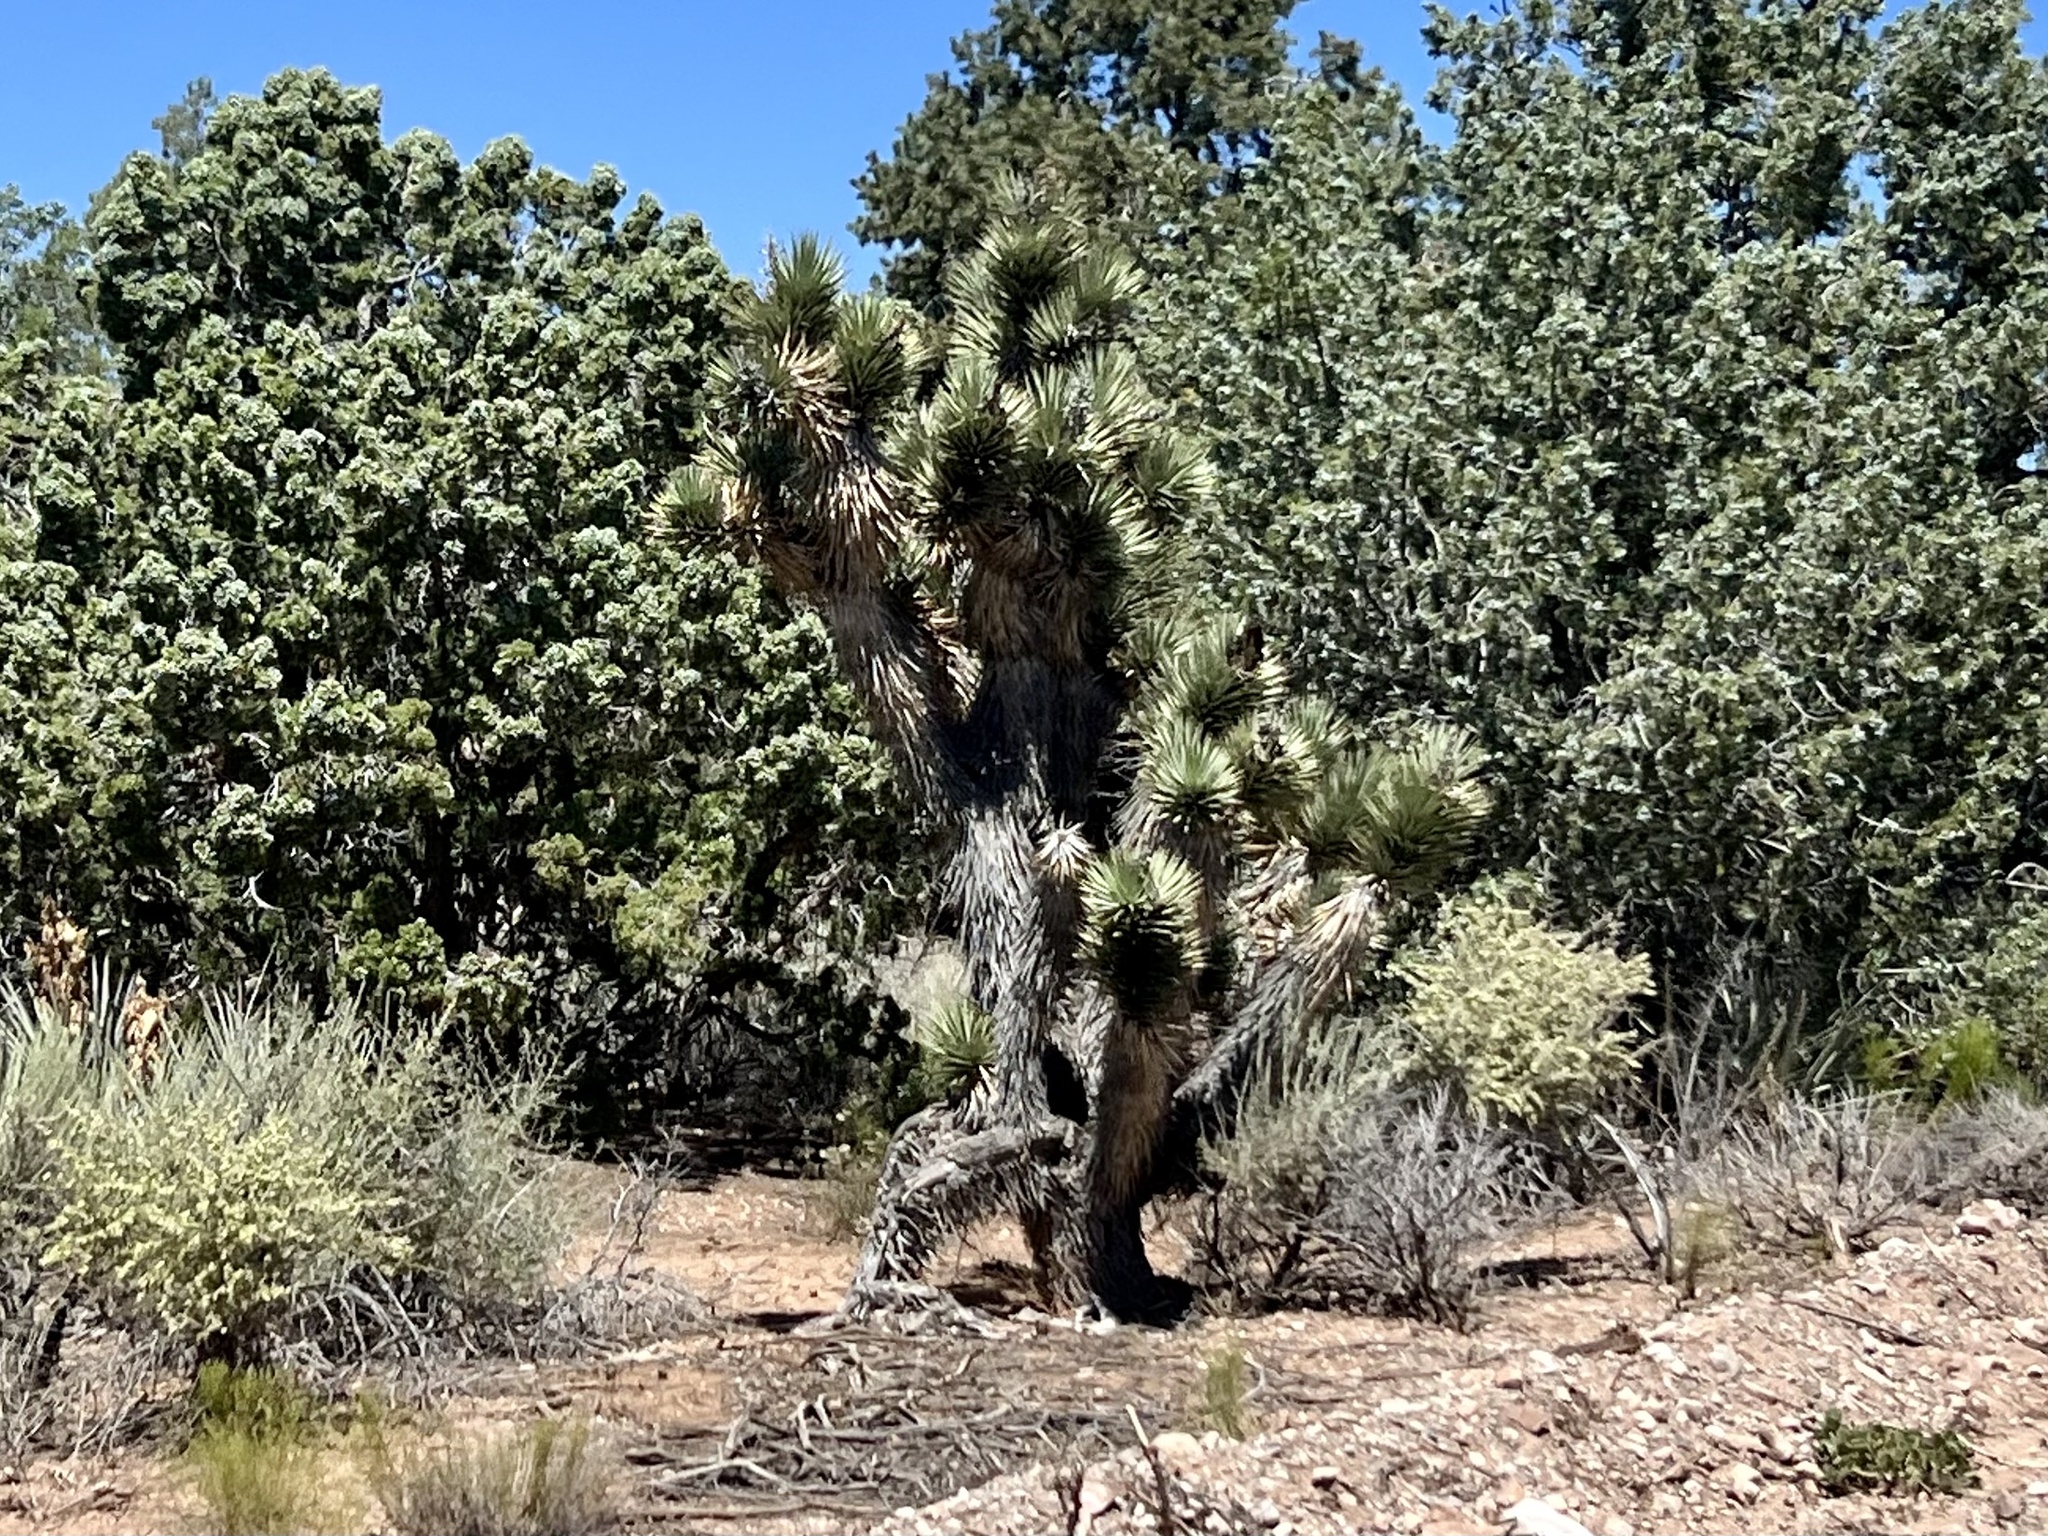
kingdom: Plantae
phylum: Tracheophyta
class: Liliopsida
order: Asparagales
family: Asparagaceae
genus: Yucca
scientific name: Yucca brevifolia
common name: Joshua tree
